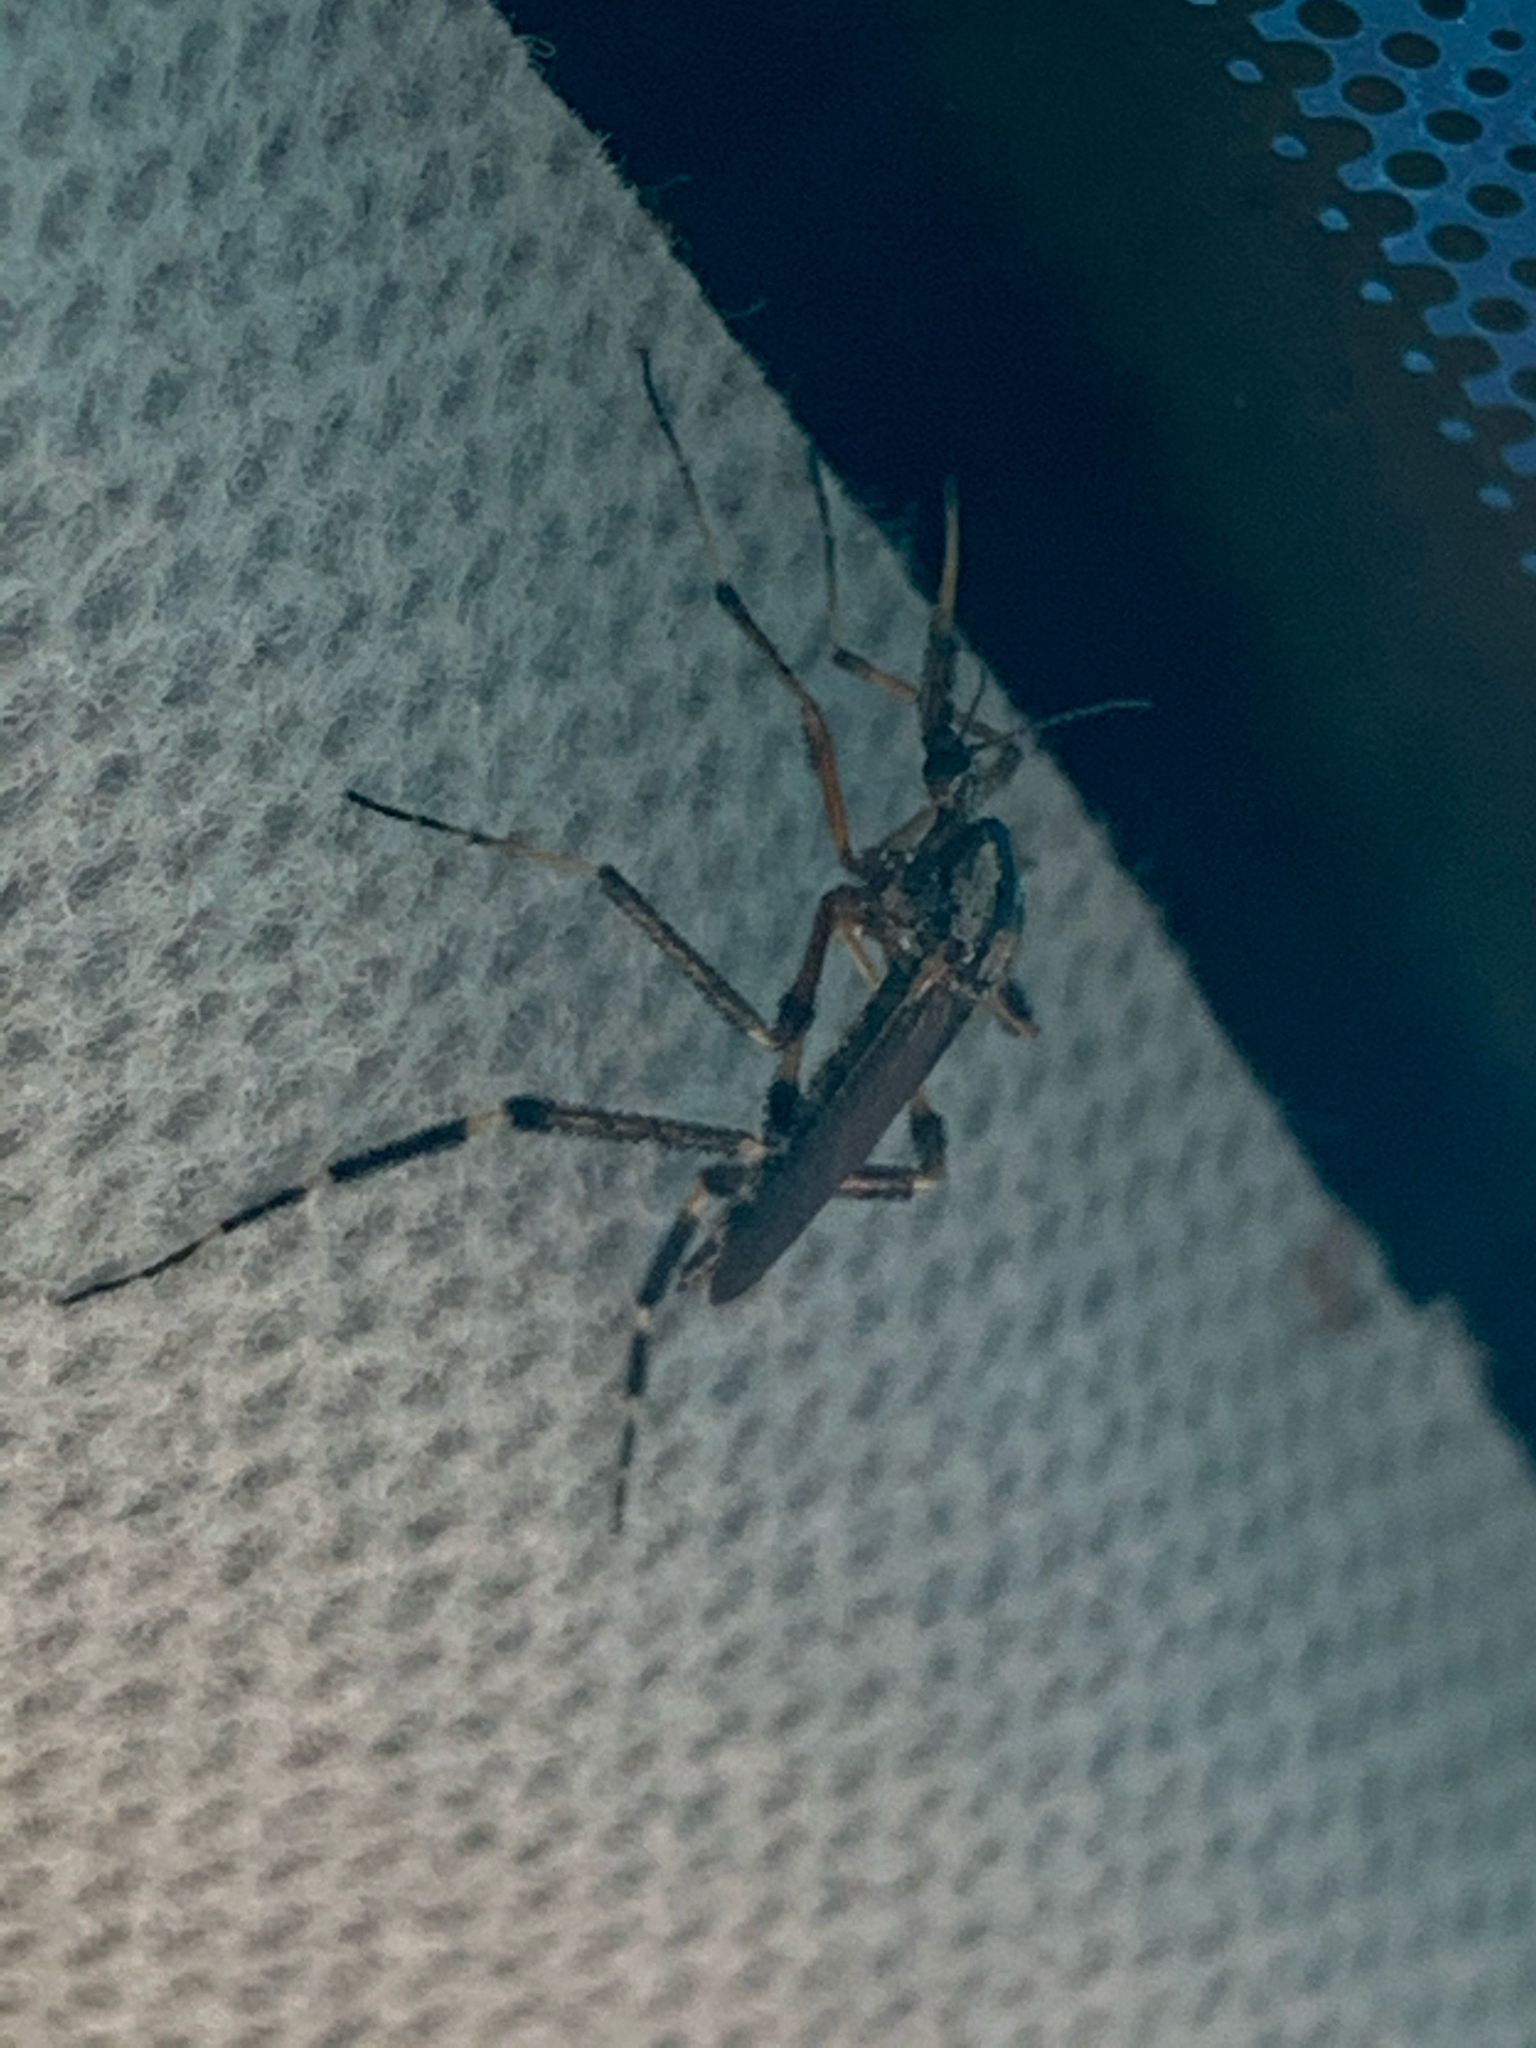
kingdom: Animalia
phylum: Arthropoda
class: Insecta
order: Diptera
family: Culicidae
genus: Psorophora
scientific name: Psorophora ciliata
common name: Gallinipper
